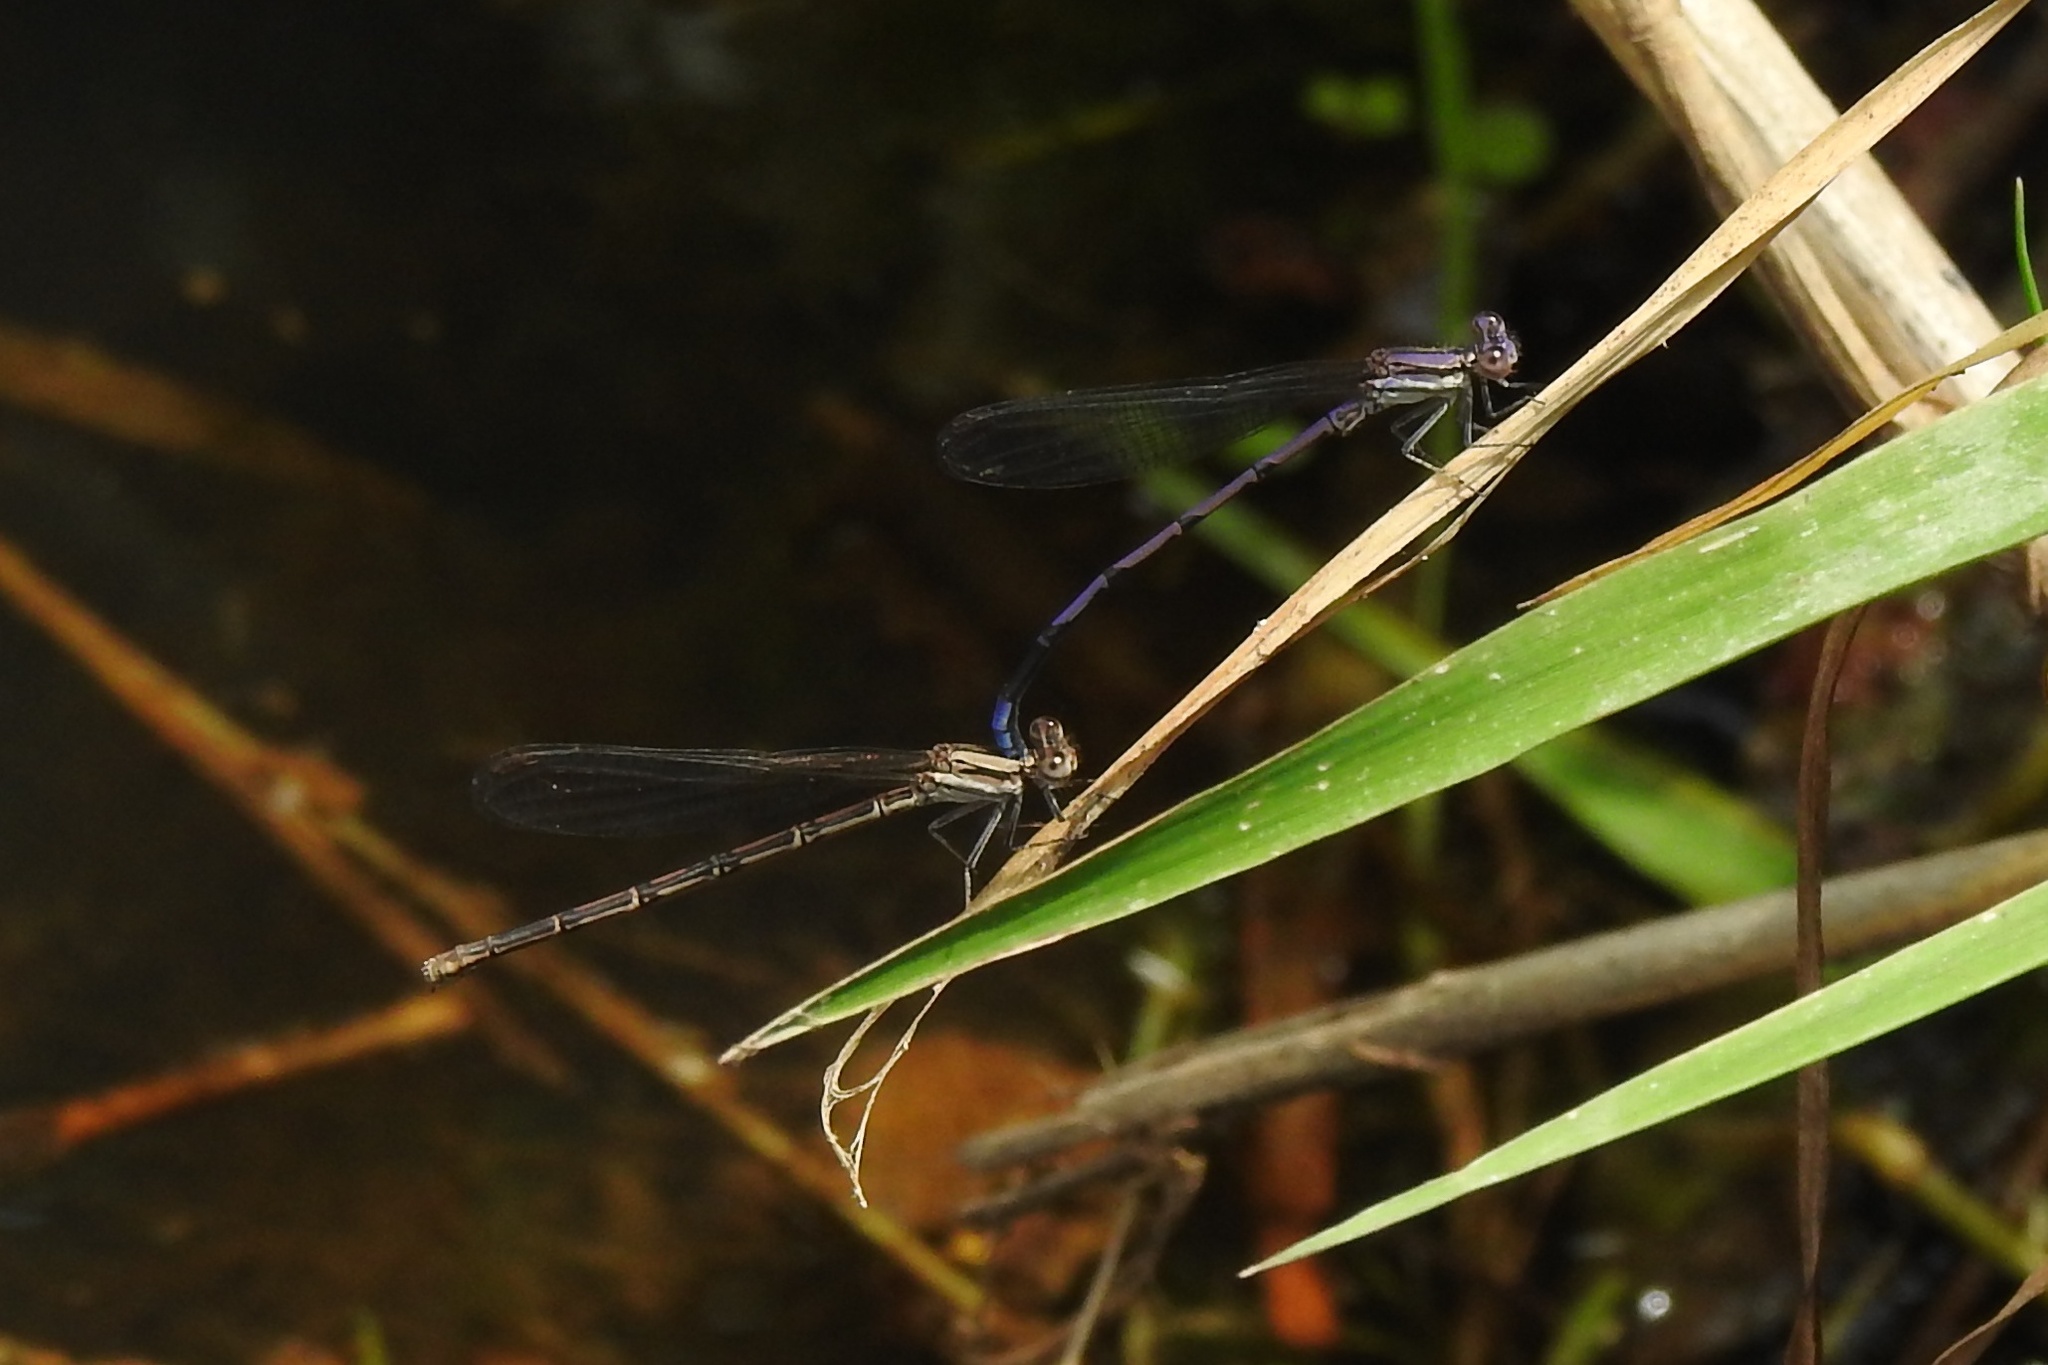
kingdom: Animalia
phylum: Arthropoda
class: Insecta
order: Odonata
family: Coenagrionidae
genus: Argia
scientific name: Argia fumipennis
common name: Variable dancer
